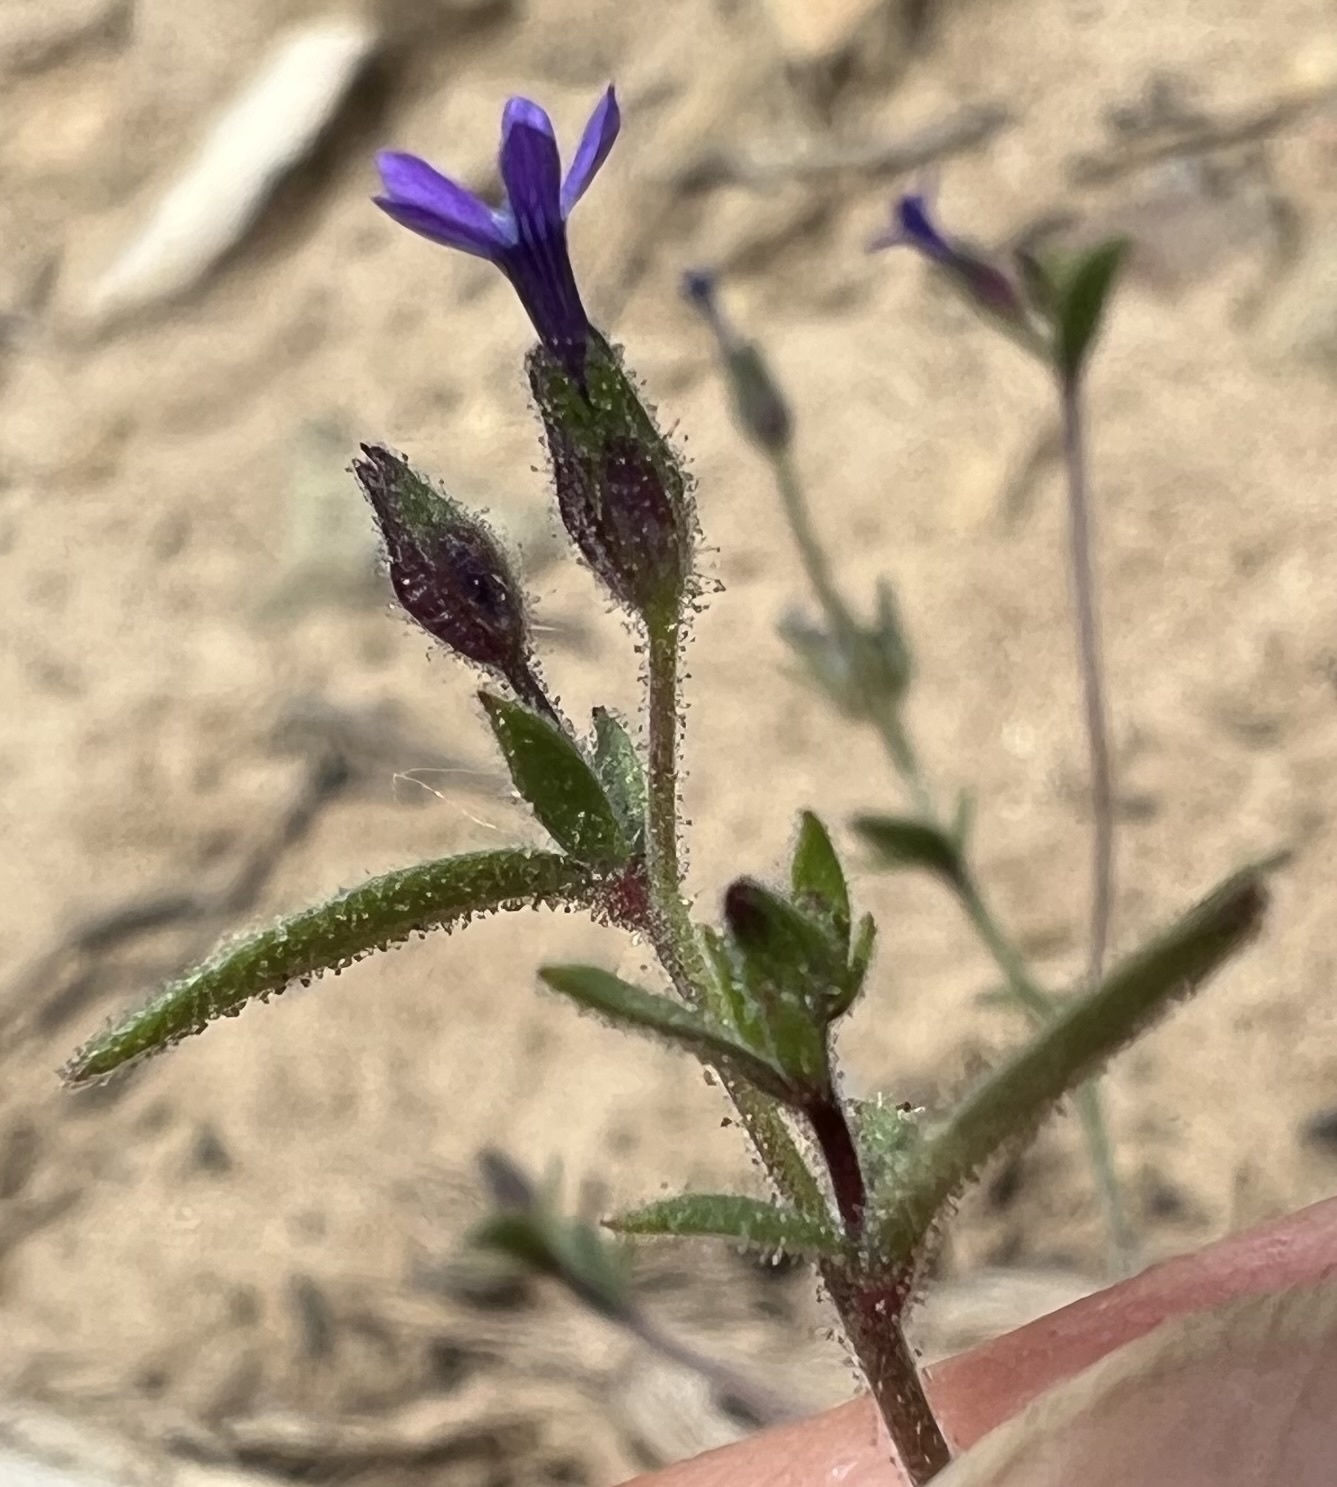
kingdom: Plantae
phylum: Tracheophyta
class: Magnoliopsida
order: Ericales
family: Polemoniaceae
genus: Allophyllum
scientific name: Allophyllum gilioides
